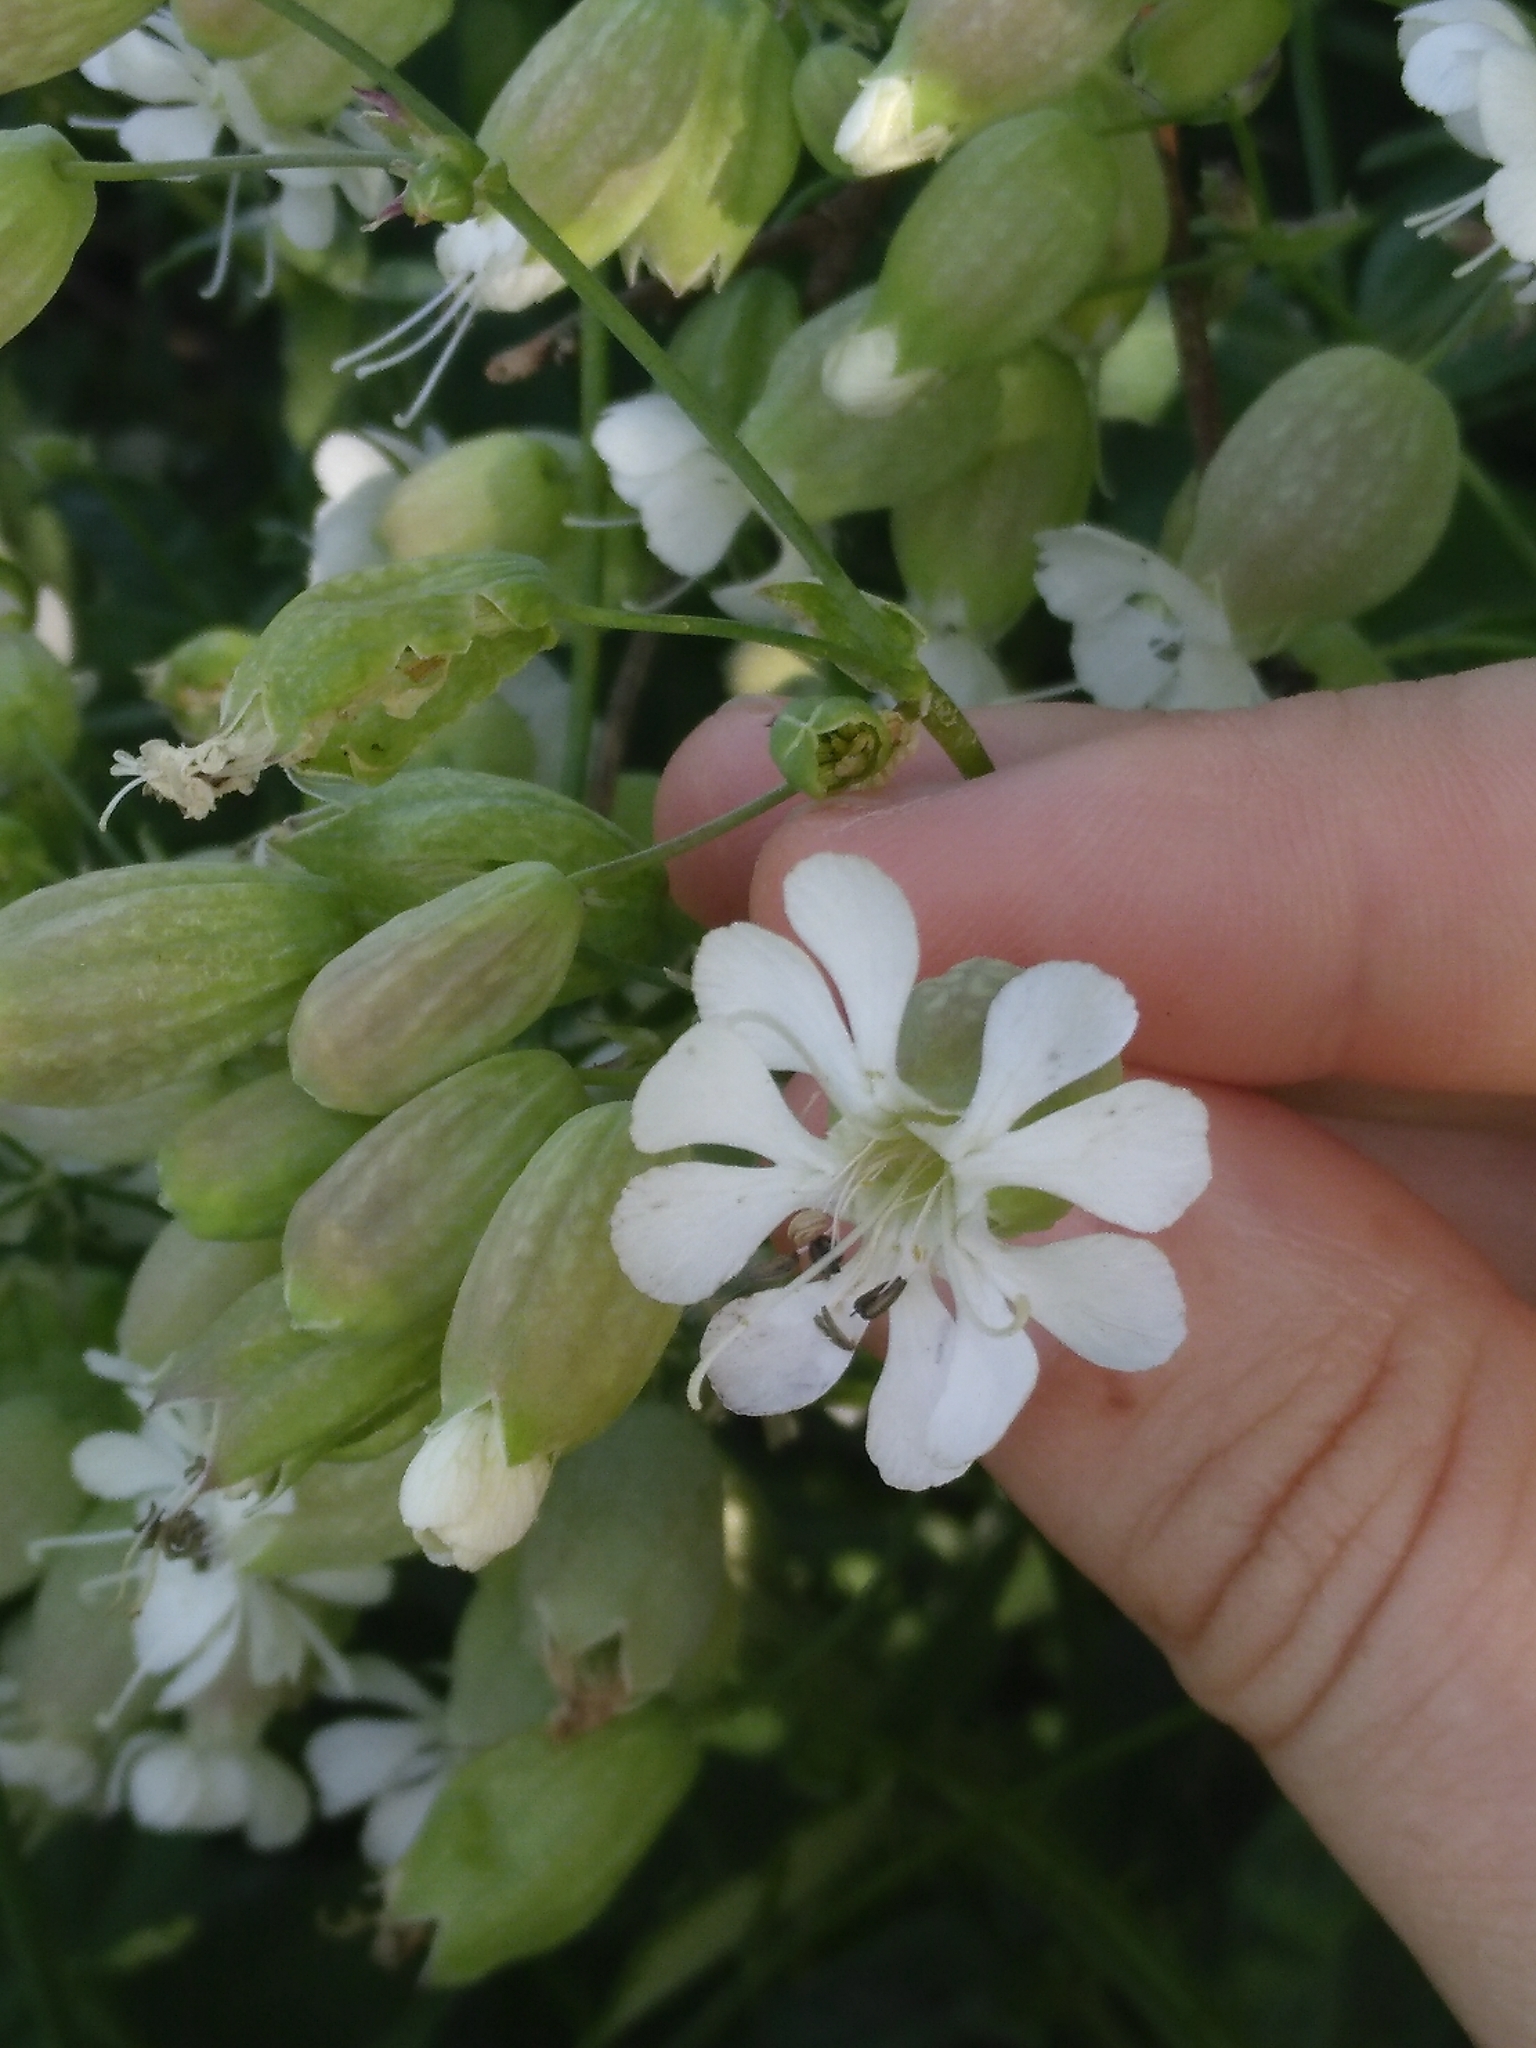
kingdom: Plantae
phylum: Tracheophyta
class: Magnoliopsida
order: Caryophyllales
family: Caryophyllaceae
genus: Silene
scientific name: Silene vulgaris
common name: Bladder campion
